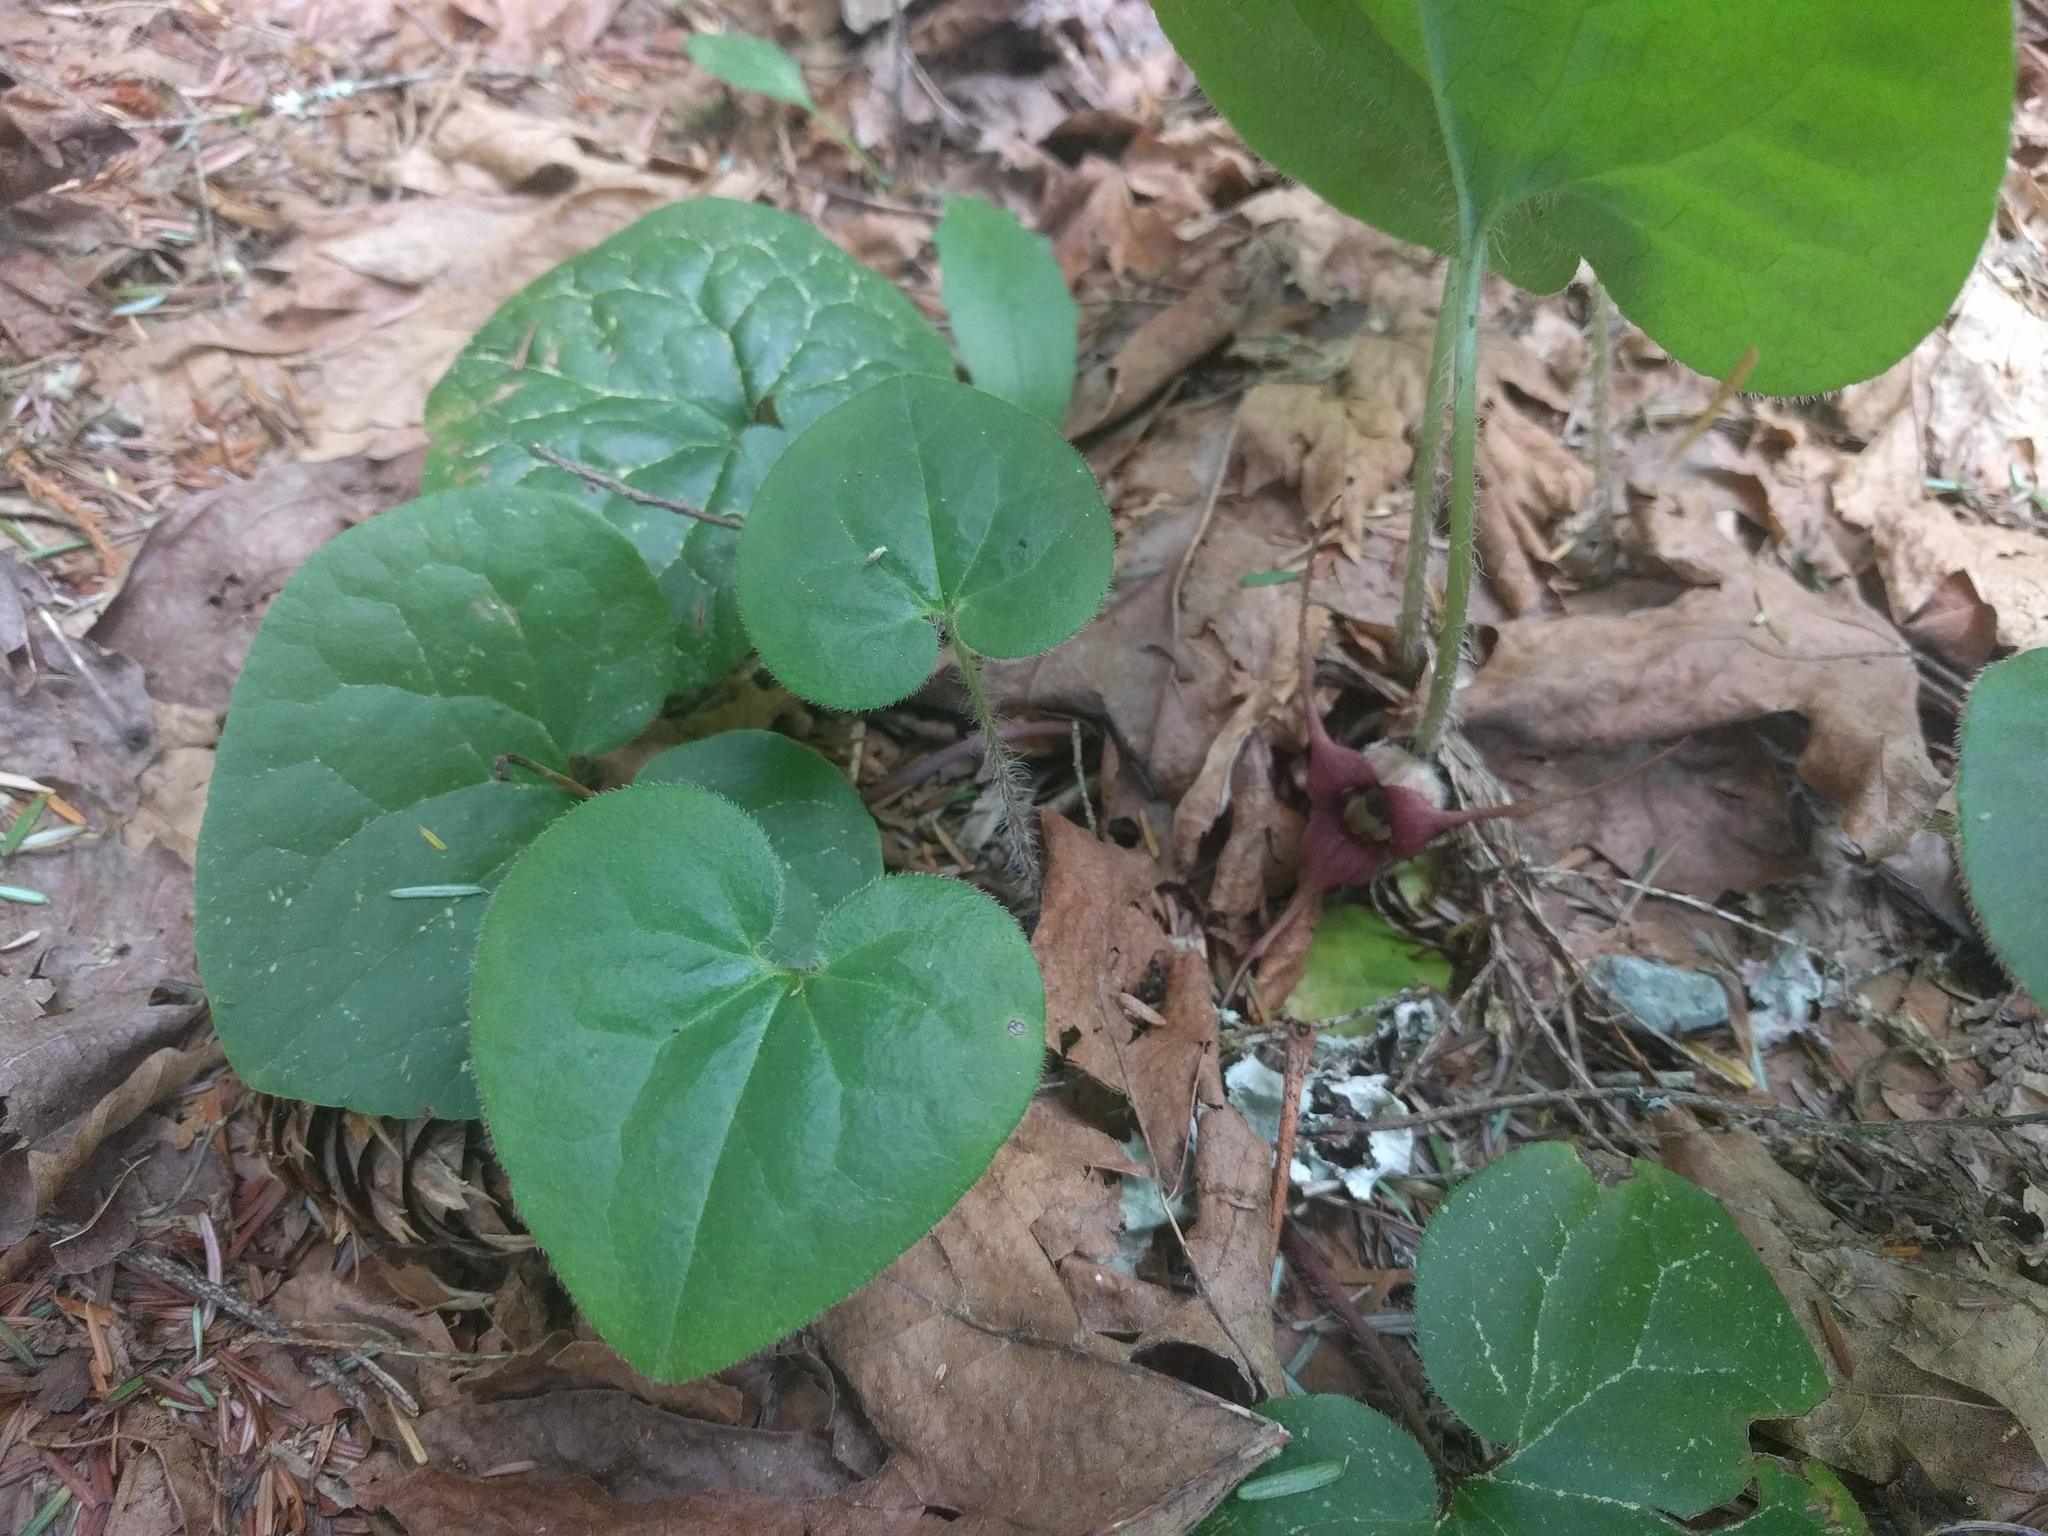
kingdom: Plantae
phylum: Tracheophyta
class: Magnoliopsida
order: Piperales
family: Aristolochiaceae
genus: Asarum
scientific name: Asarum caudatum
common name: Wild ginger
